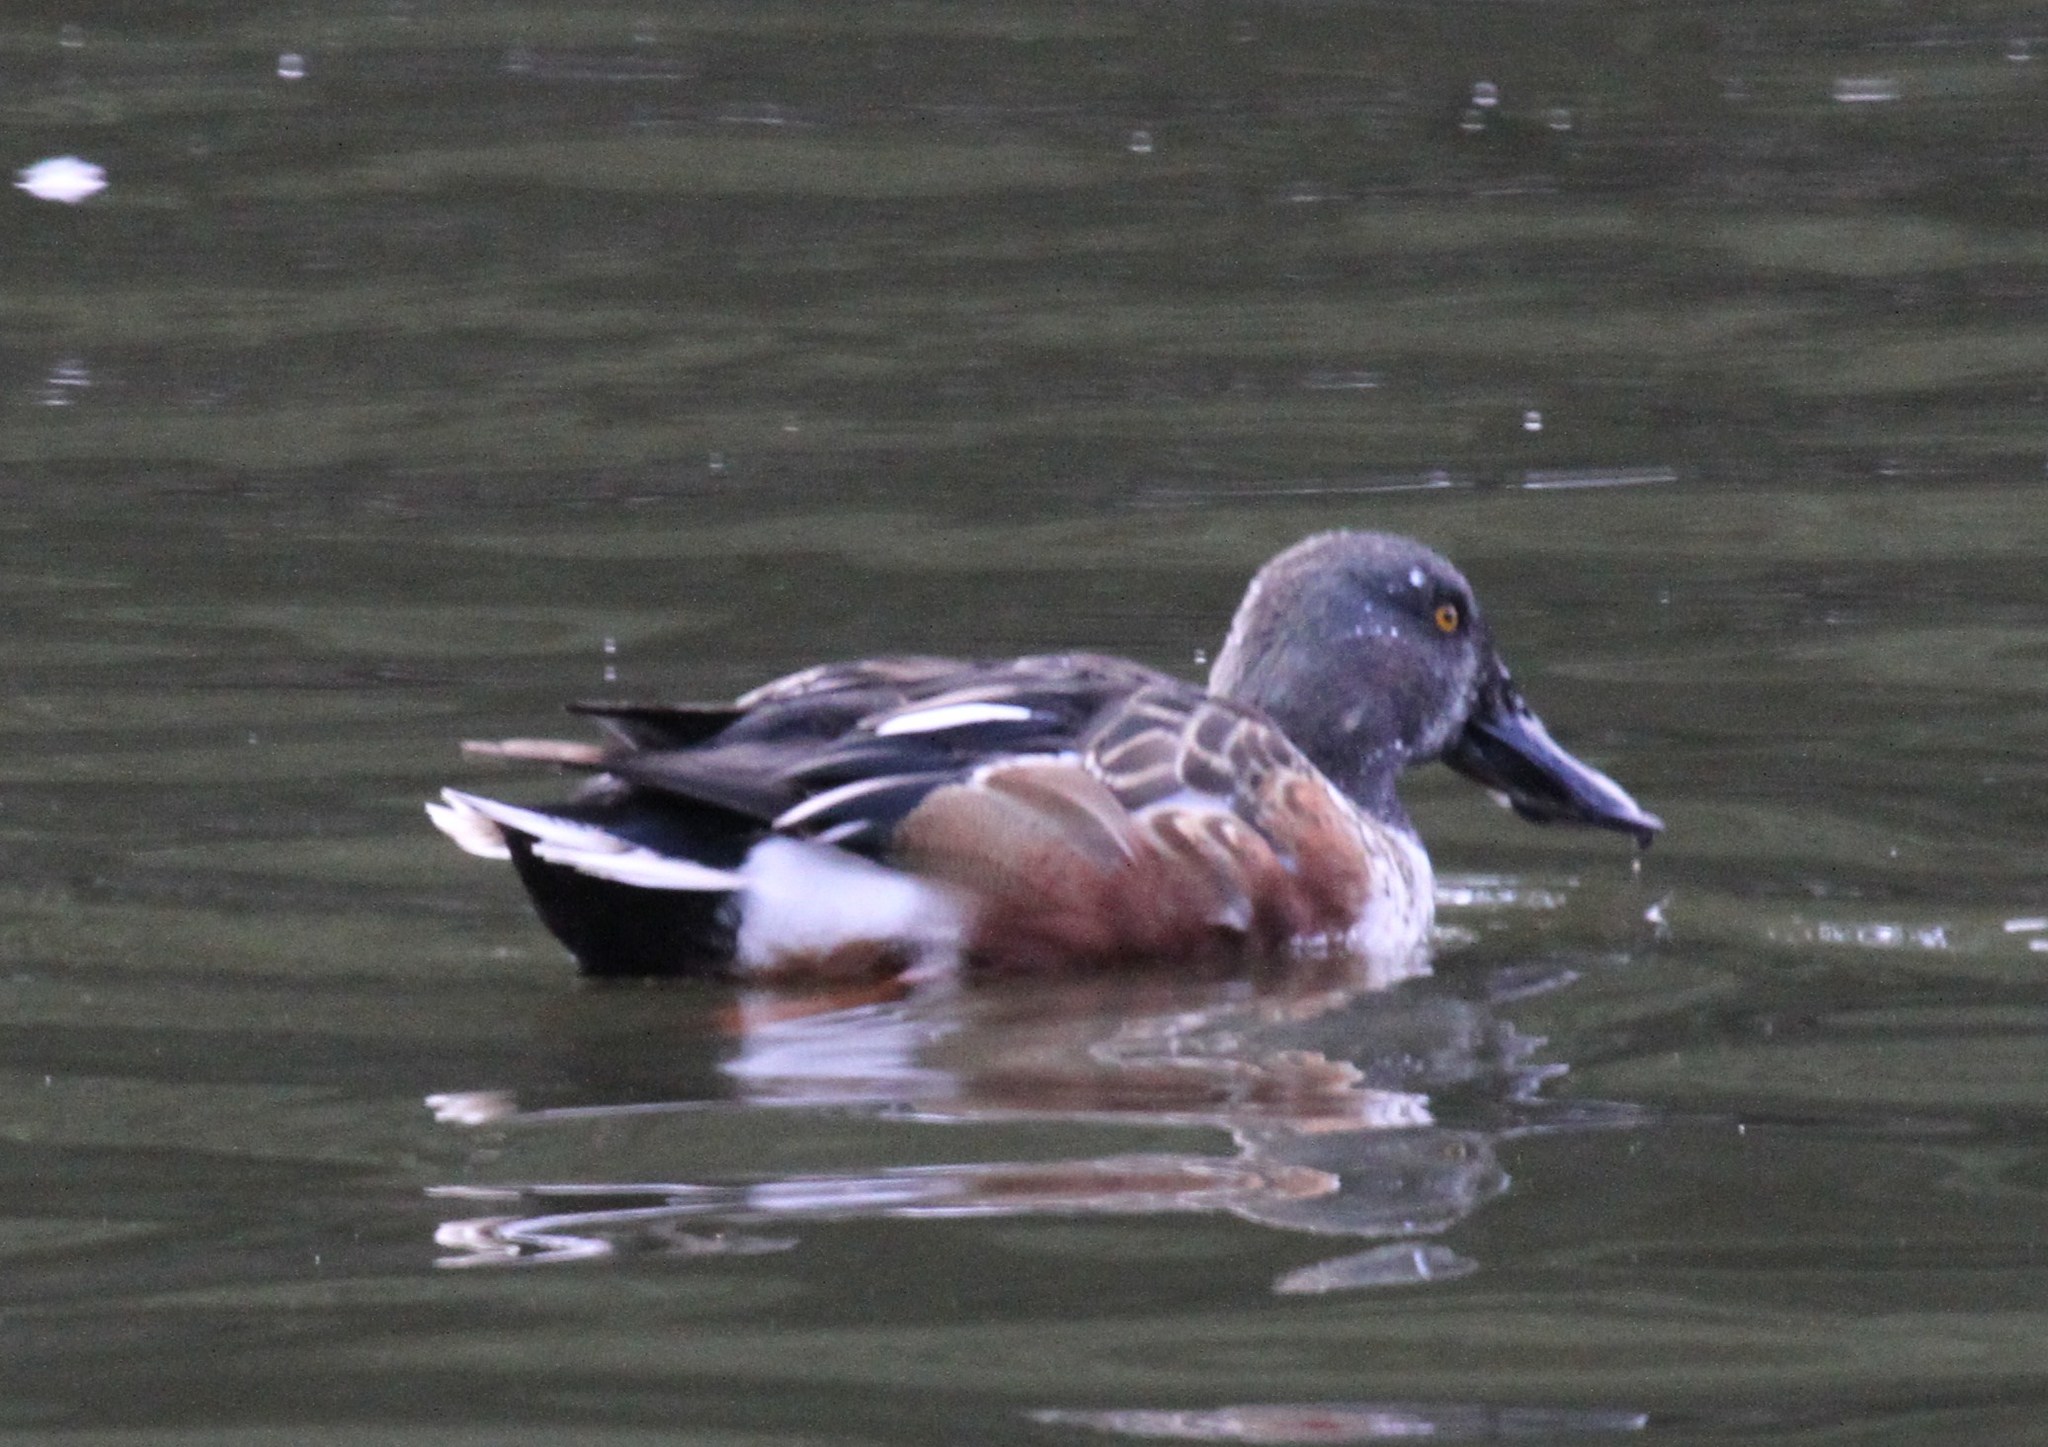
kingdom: Animalia
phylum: Chordata
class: Aves
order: Anseriformes
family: Anatidae
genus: Spatula
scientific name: Spatula clypeata
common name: Northern shoveler
